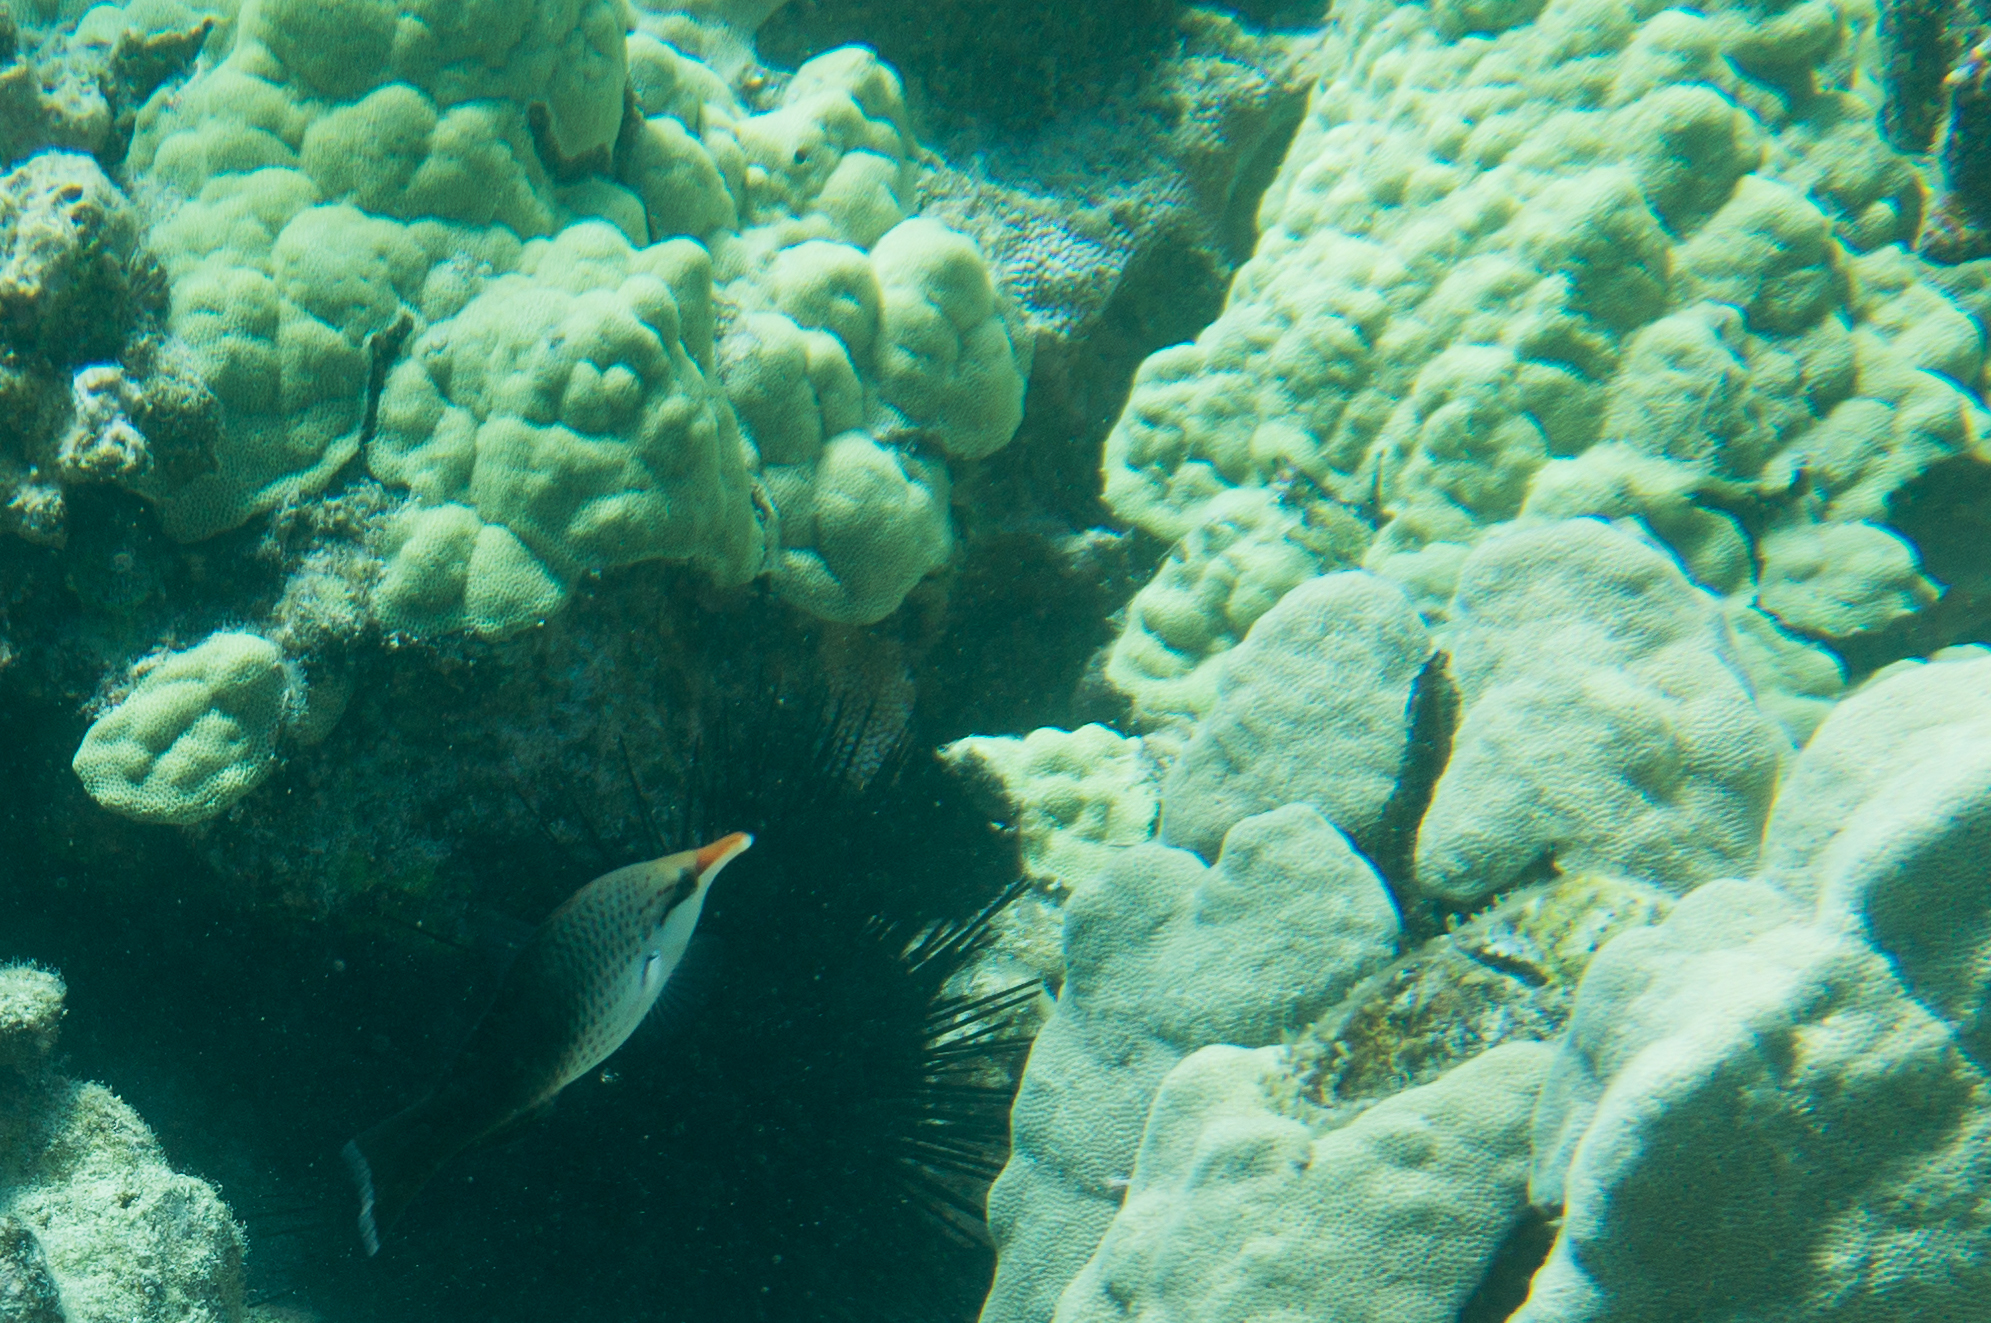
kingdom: Animalia
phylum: Chordata
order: Perciformes
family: Labridae
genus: Gomphosus
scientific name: Gomphosus varius
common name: Bird wrasse
